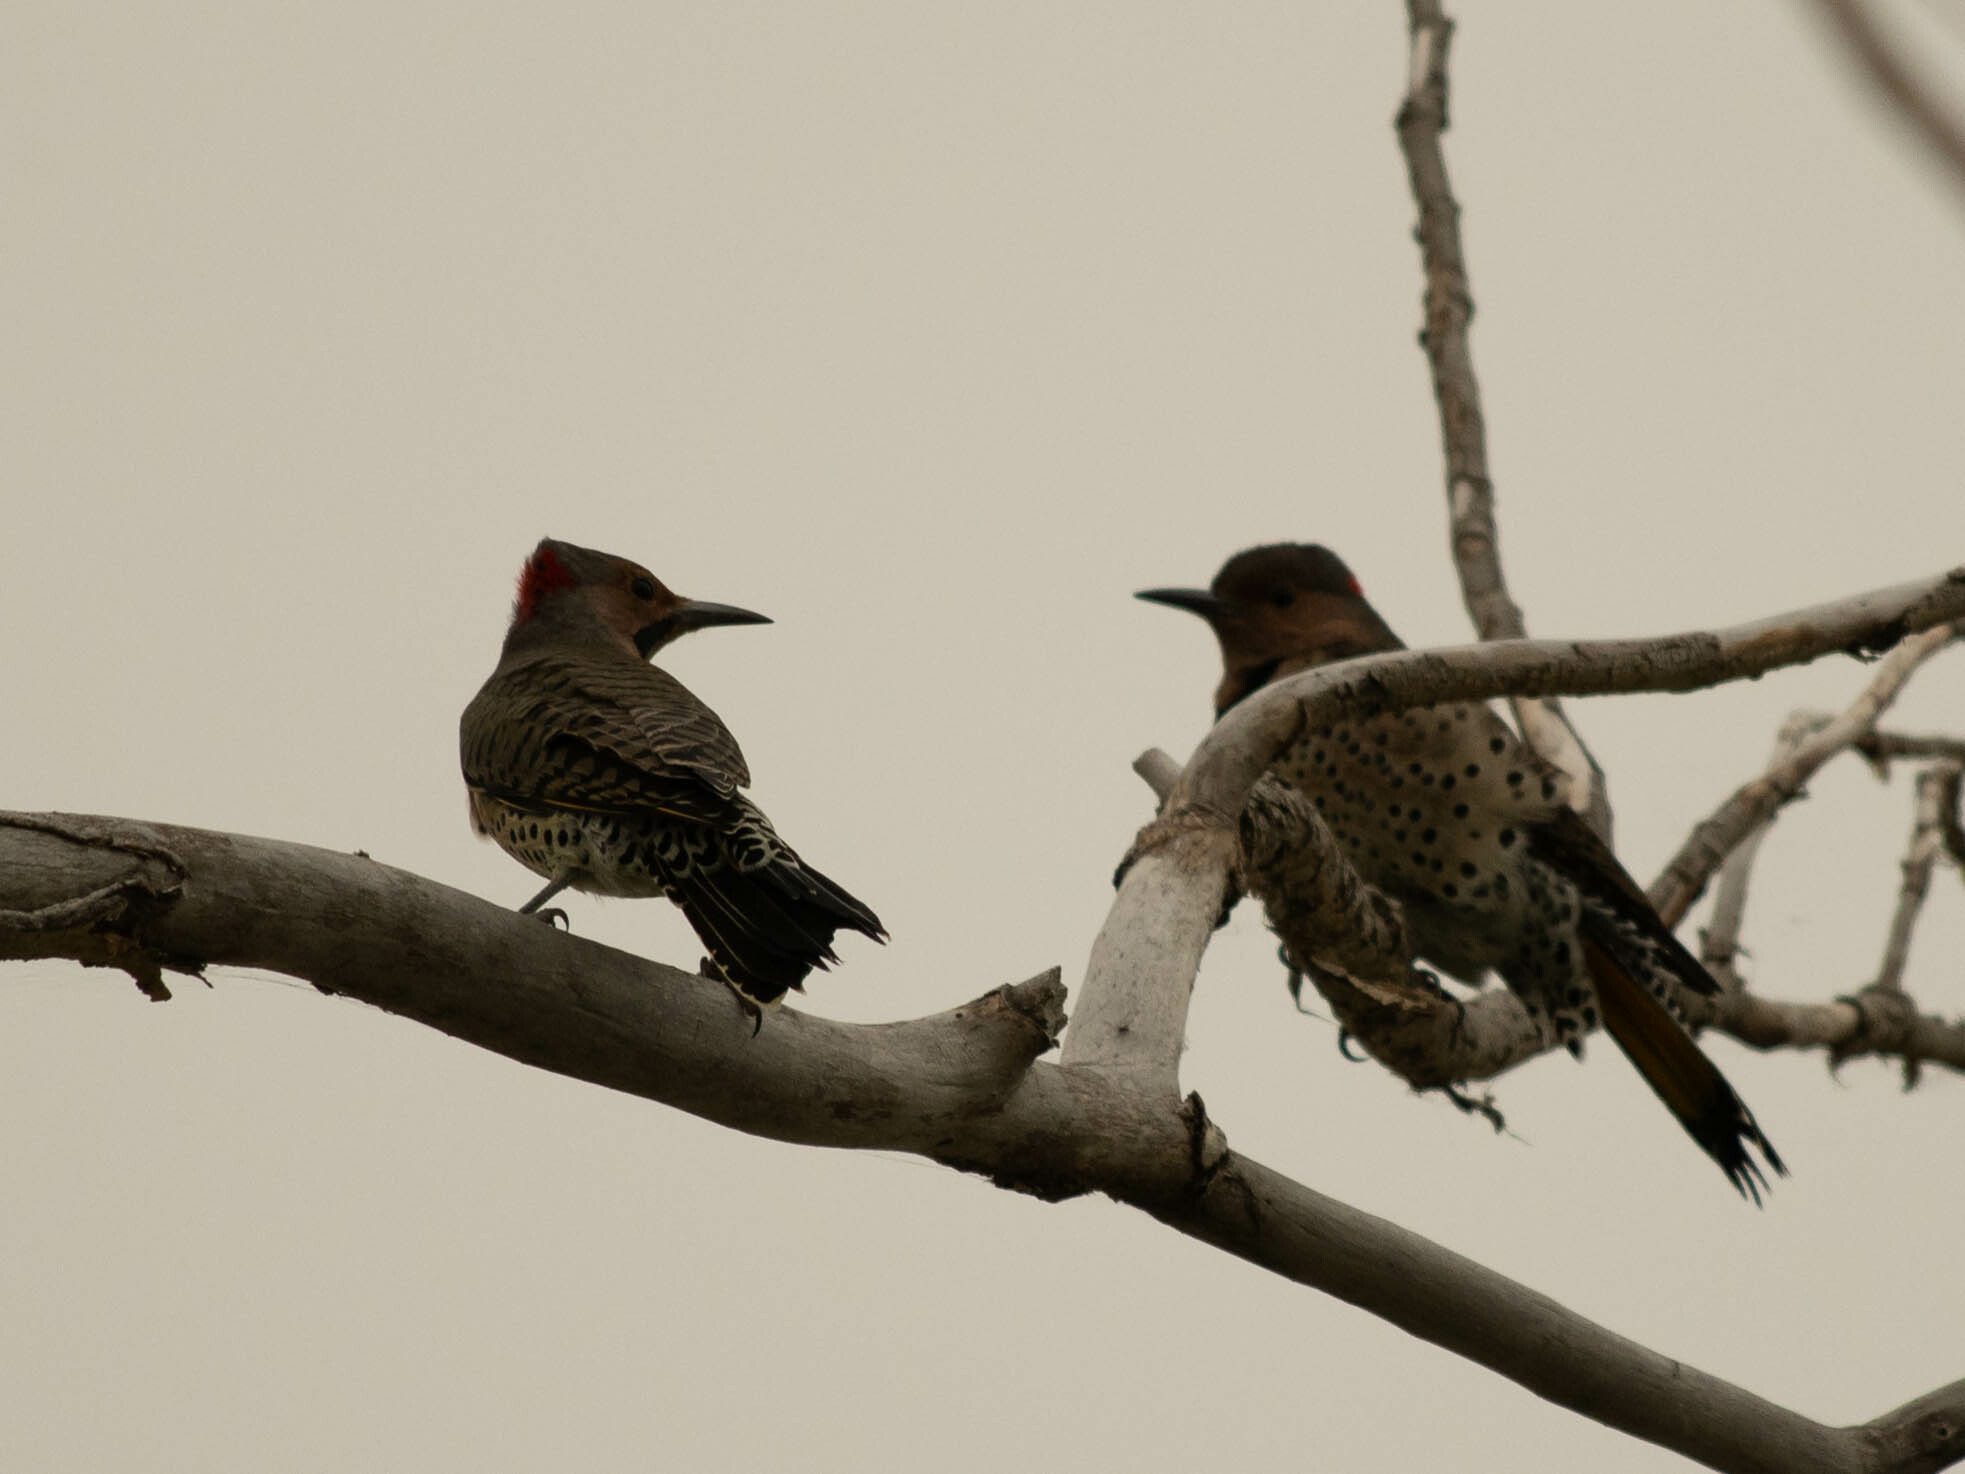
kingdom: Animalia
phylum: Chordata
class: Aves
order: Piciformes
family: Picidae
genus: Colaptes
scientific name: Colaptes auratus
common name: Northern flicker
